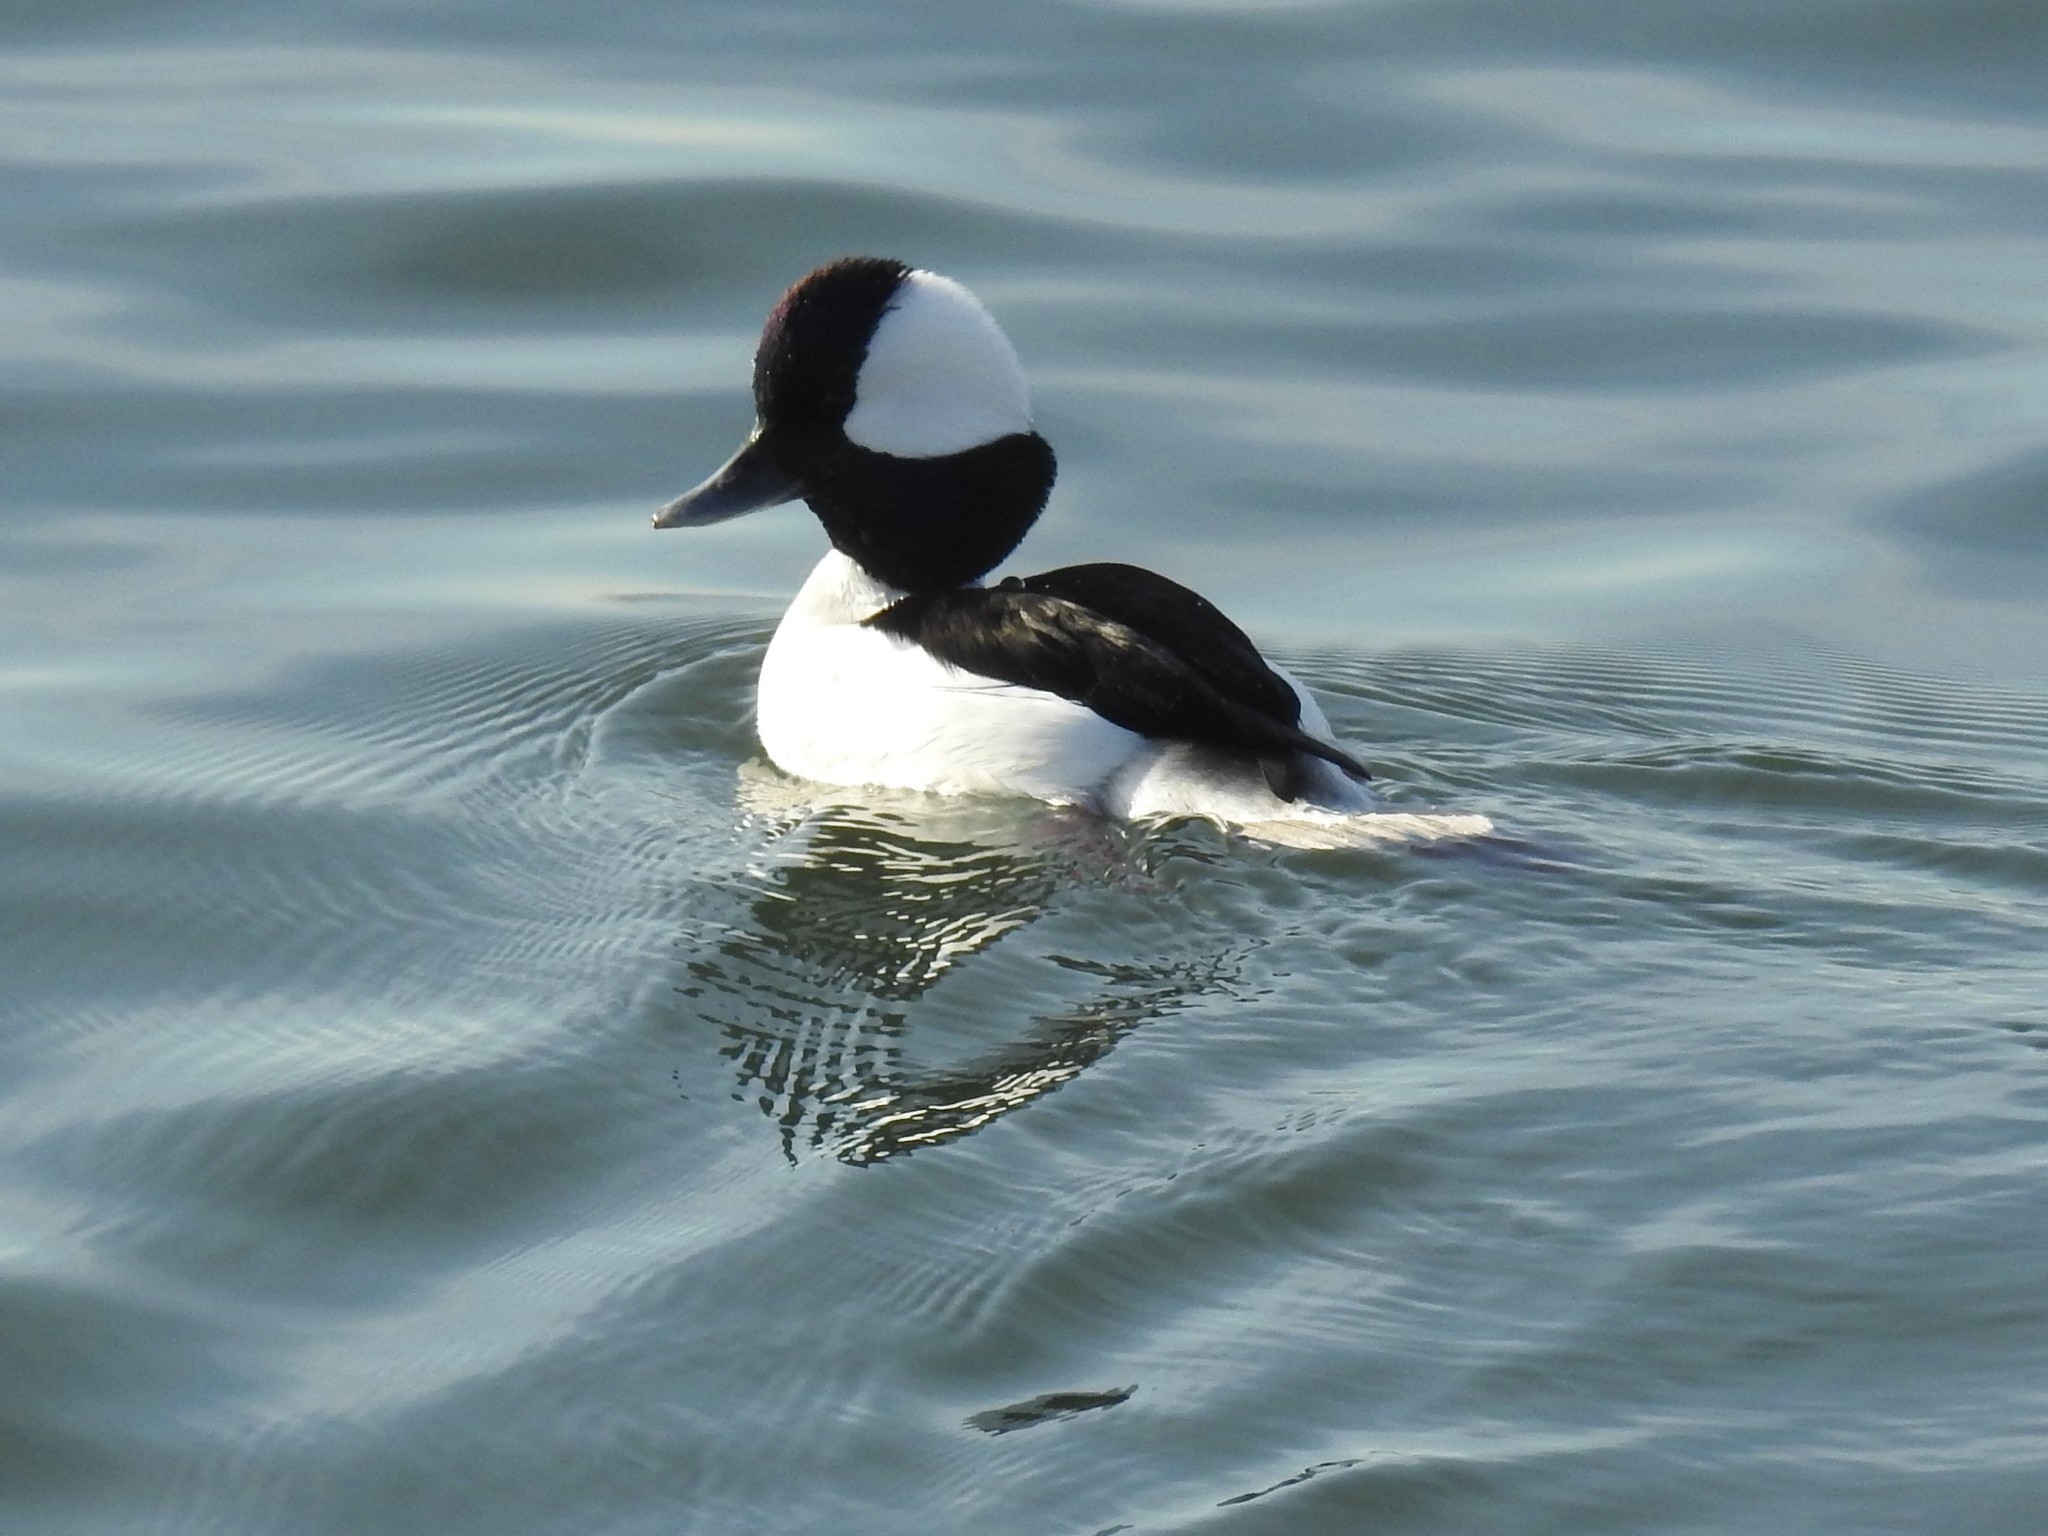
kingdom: Animalia
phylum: Chordata
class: Aves
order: Anseriformes
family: Anatidae
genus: Bucephala
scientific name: Bucephala albeola
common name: Bufflehead
